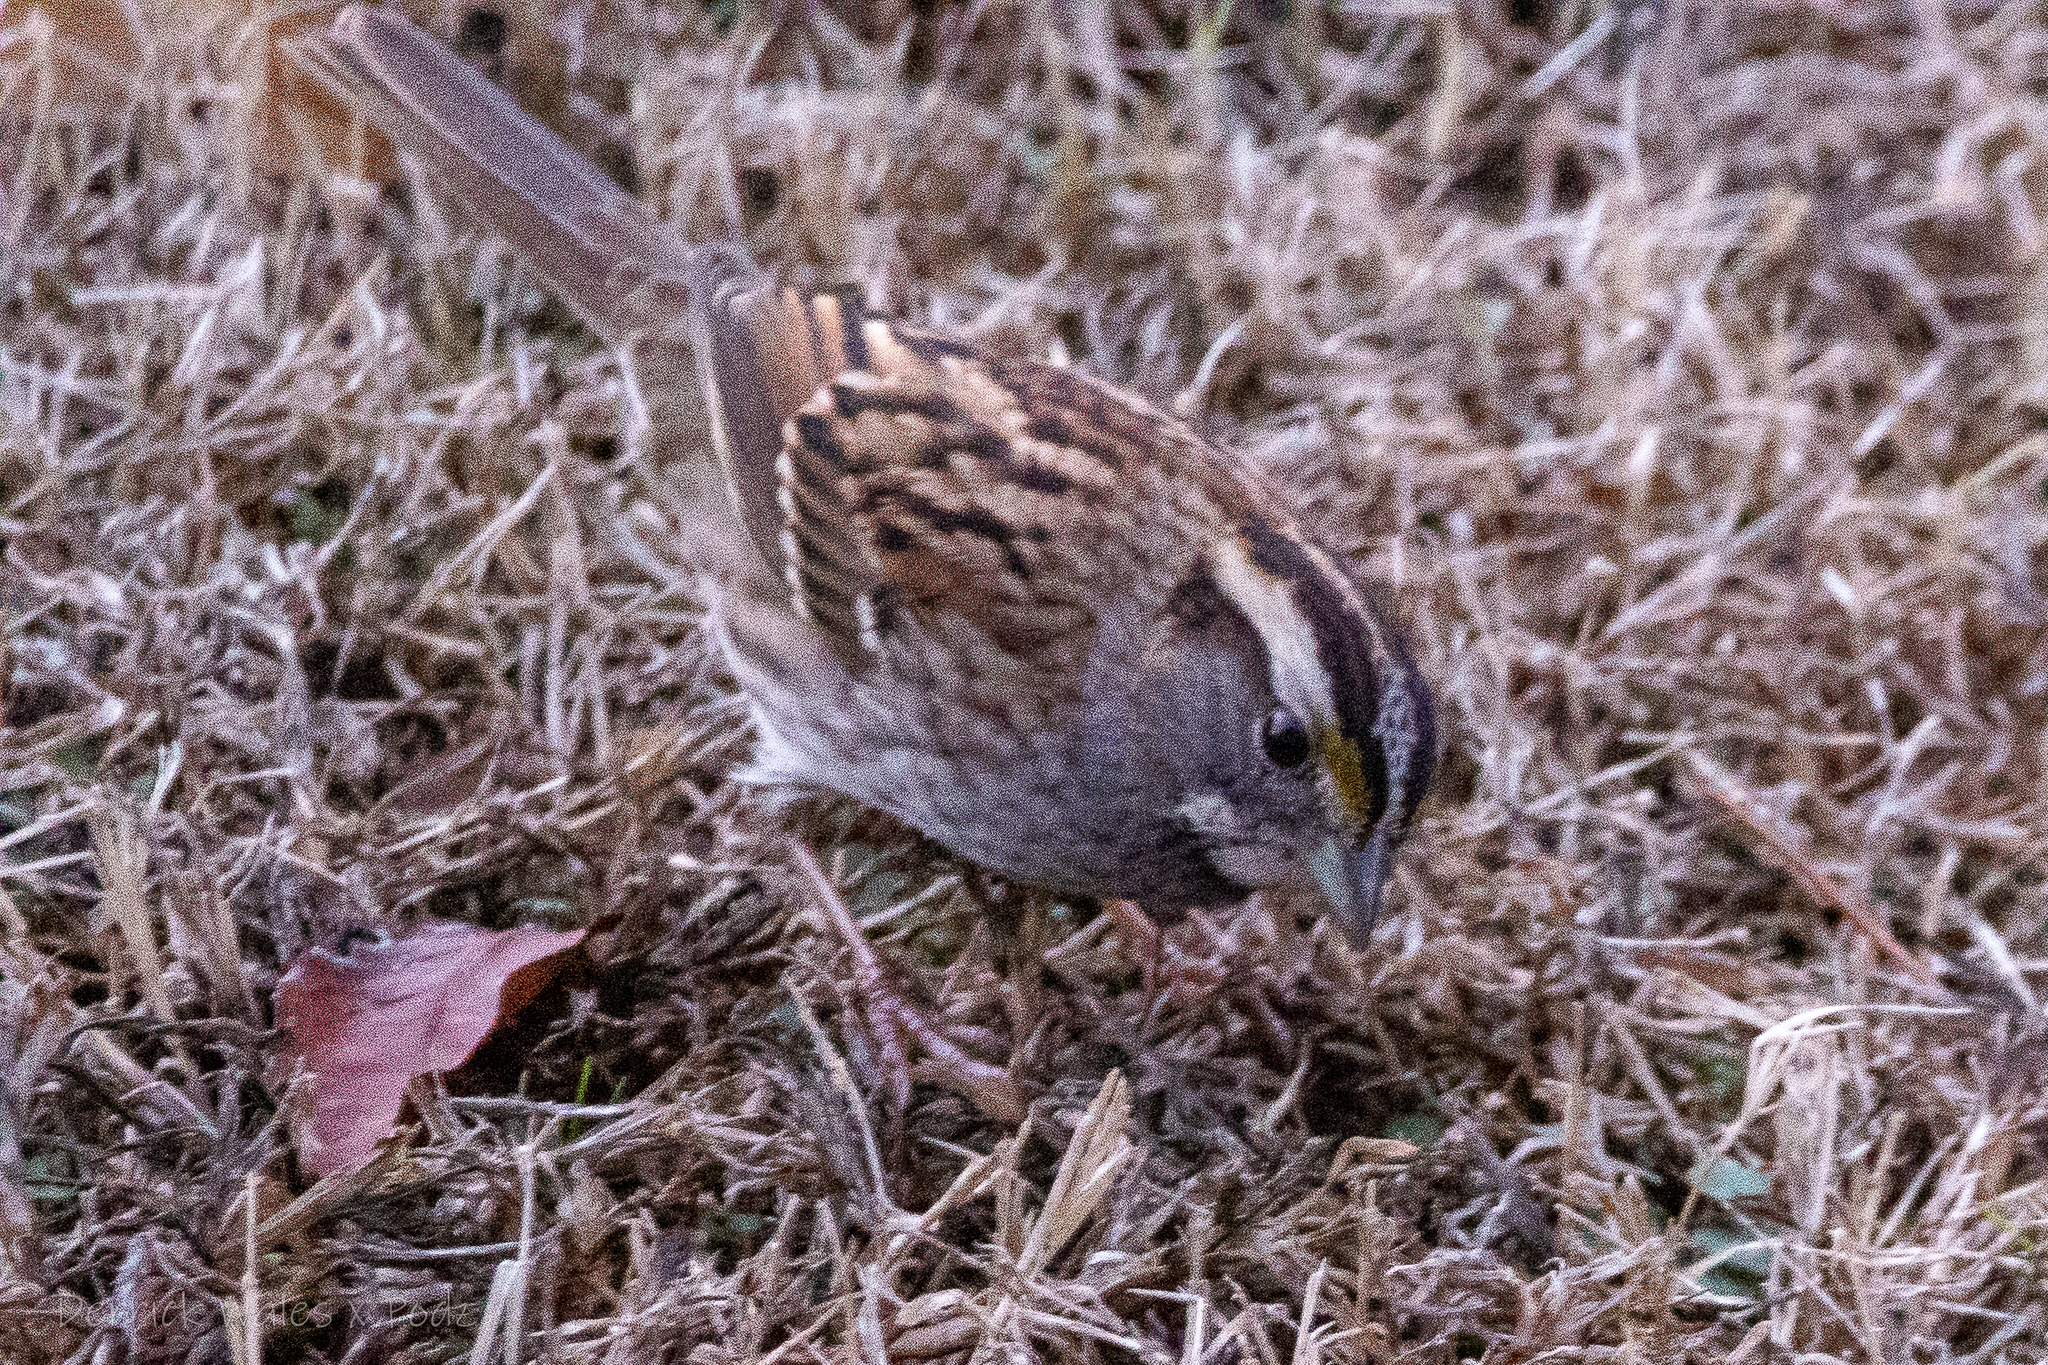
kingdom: Animalia
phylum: Chordata
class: Aves
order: Passeriformes
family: Passerellidae
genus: Zonotrichia
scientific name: Zonotrichia albicollis
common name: White-throated sparrow
